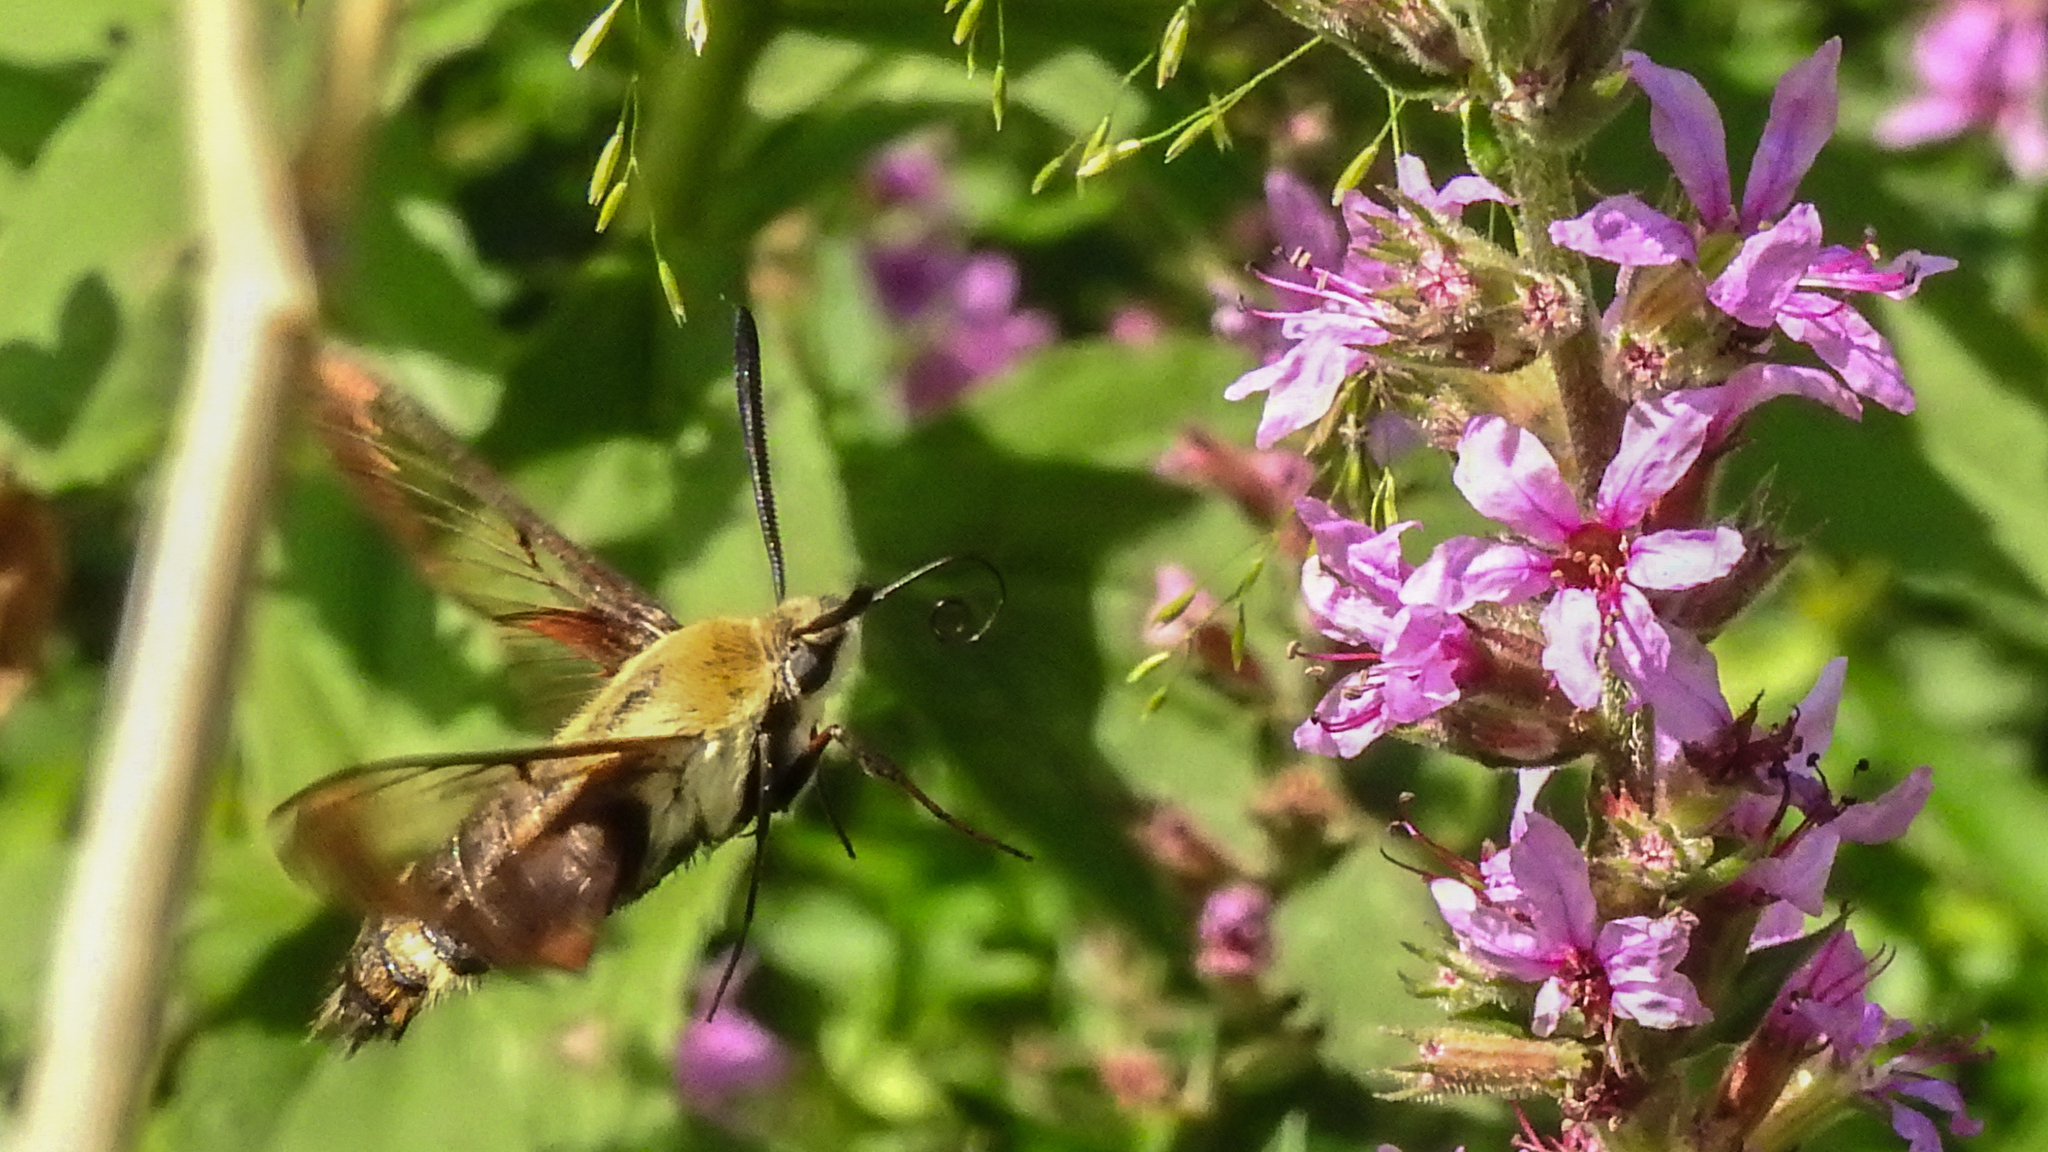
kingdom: Animalia
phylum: Arthropoda
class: Insecta
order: Lepidoptera
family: Sphingidae
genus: Hemaris
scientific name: Hemaris diffinis
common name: Bumblebee moth
